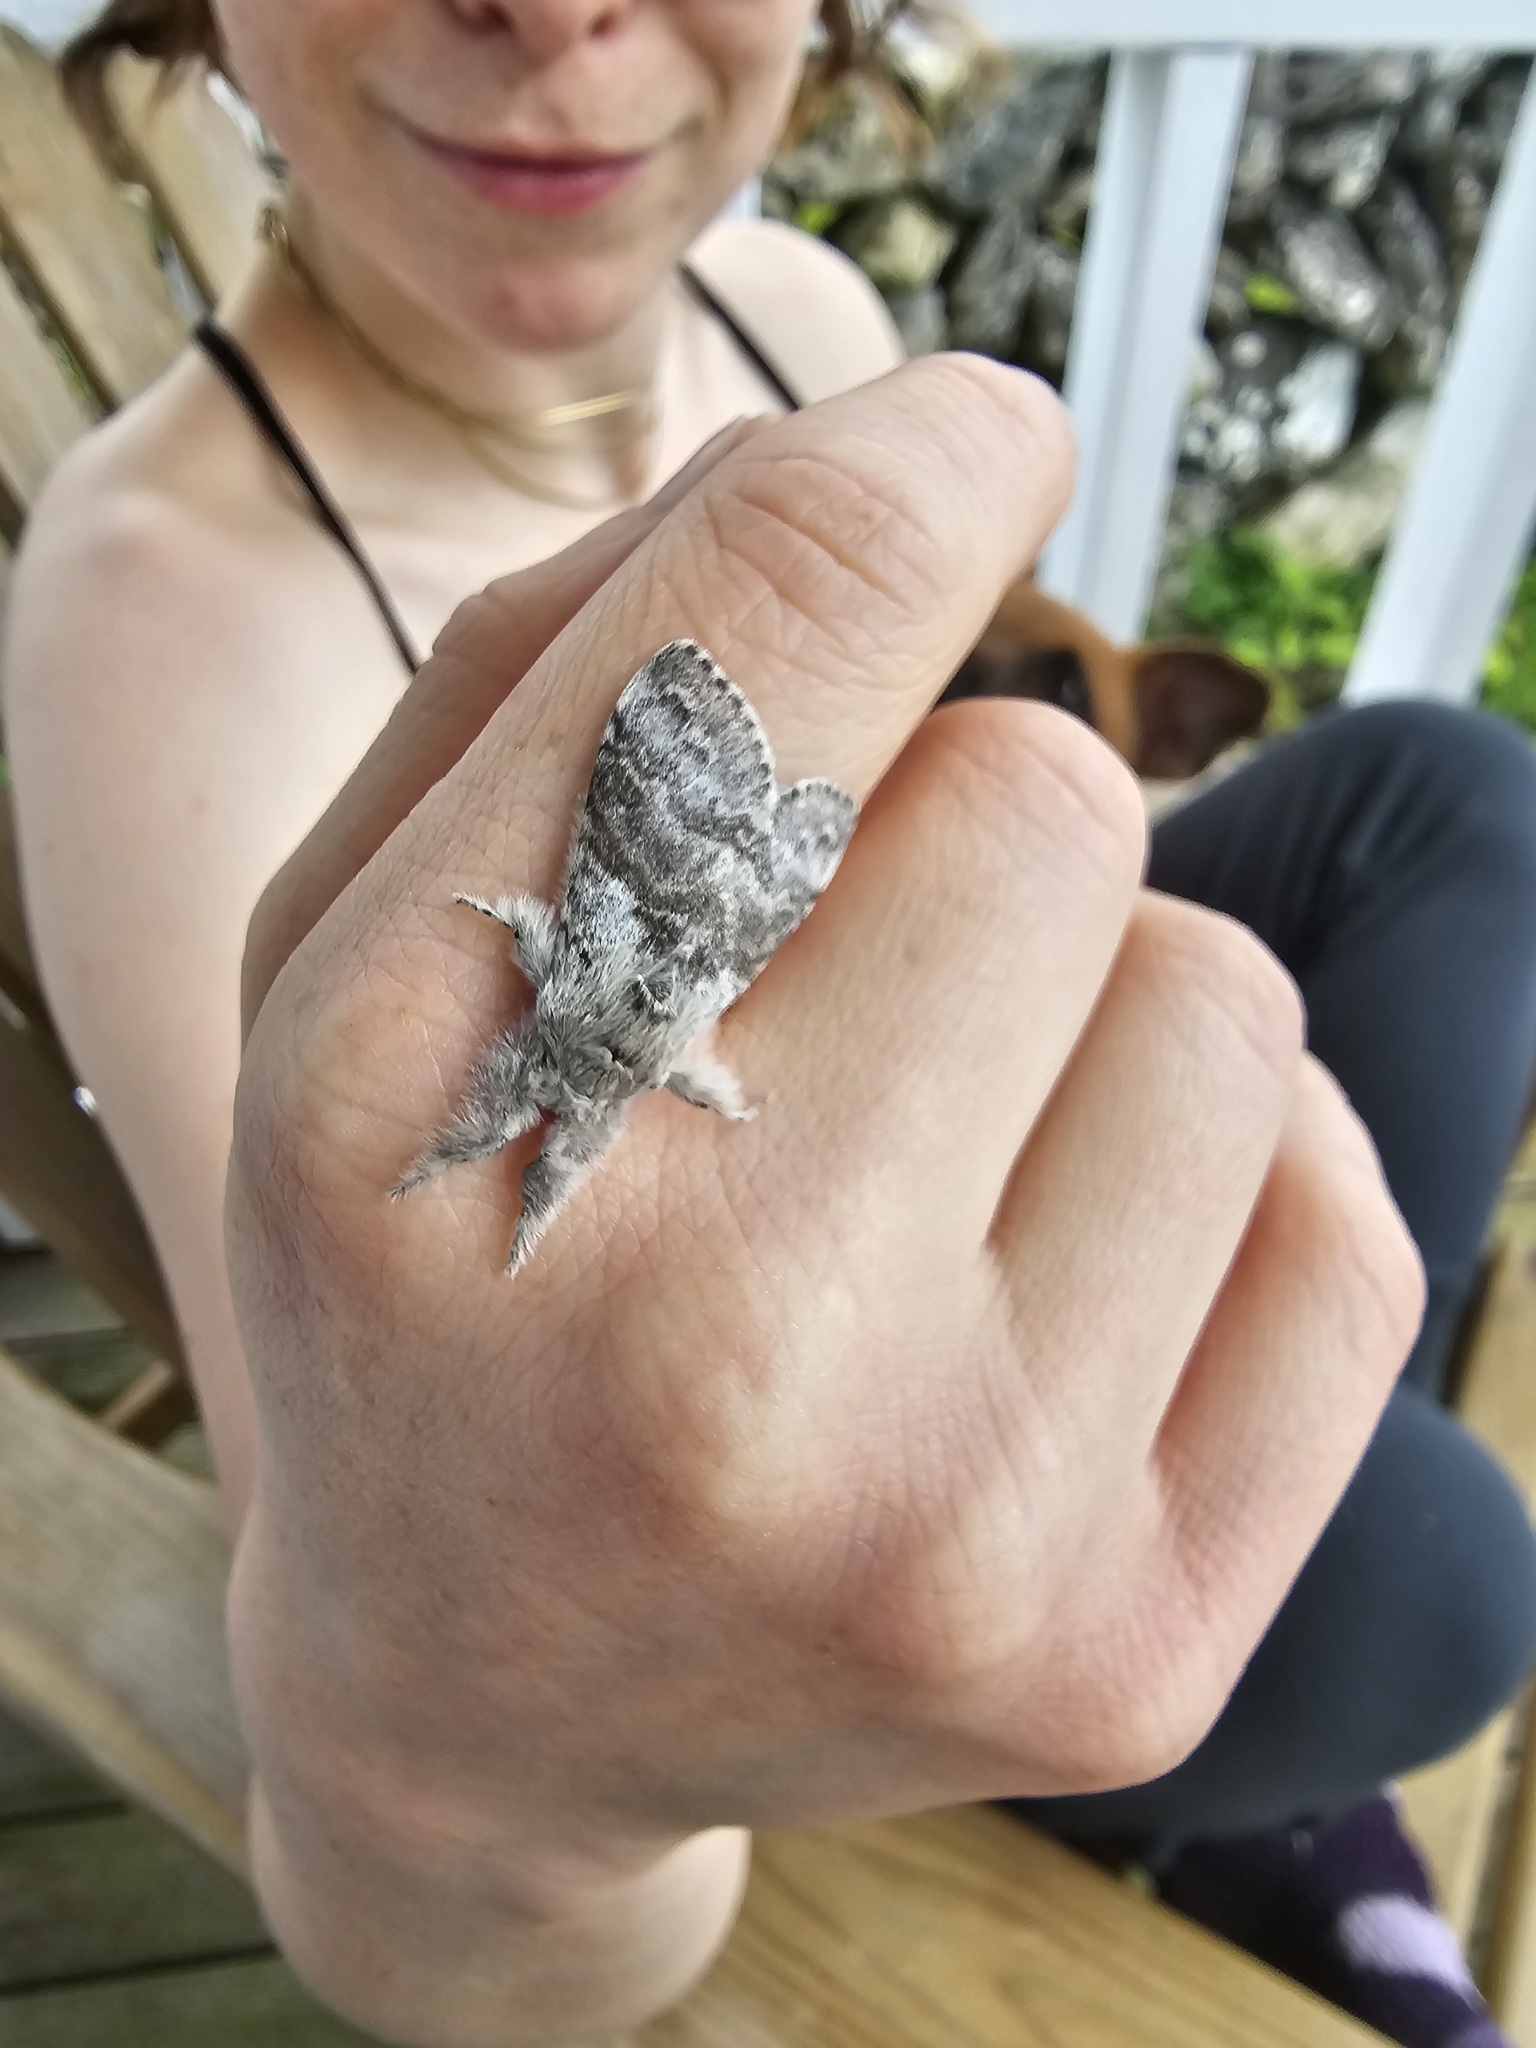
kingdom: Animalia
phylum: Arthropoda
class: Insecta
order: Lepidoptera
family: Erebidae
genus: Calliteara
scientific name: Calliteara pudibunda
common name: Pale tussock
